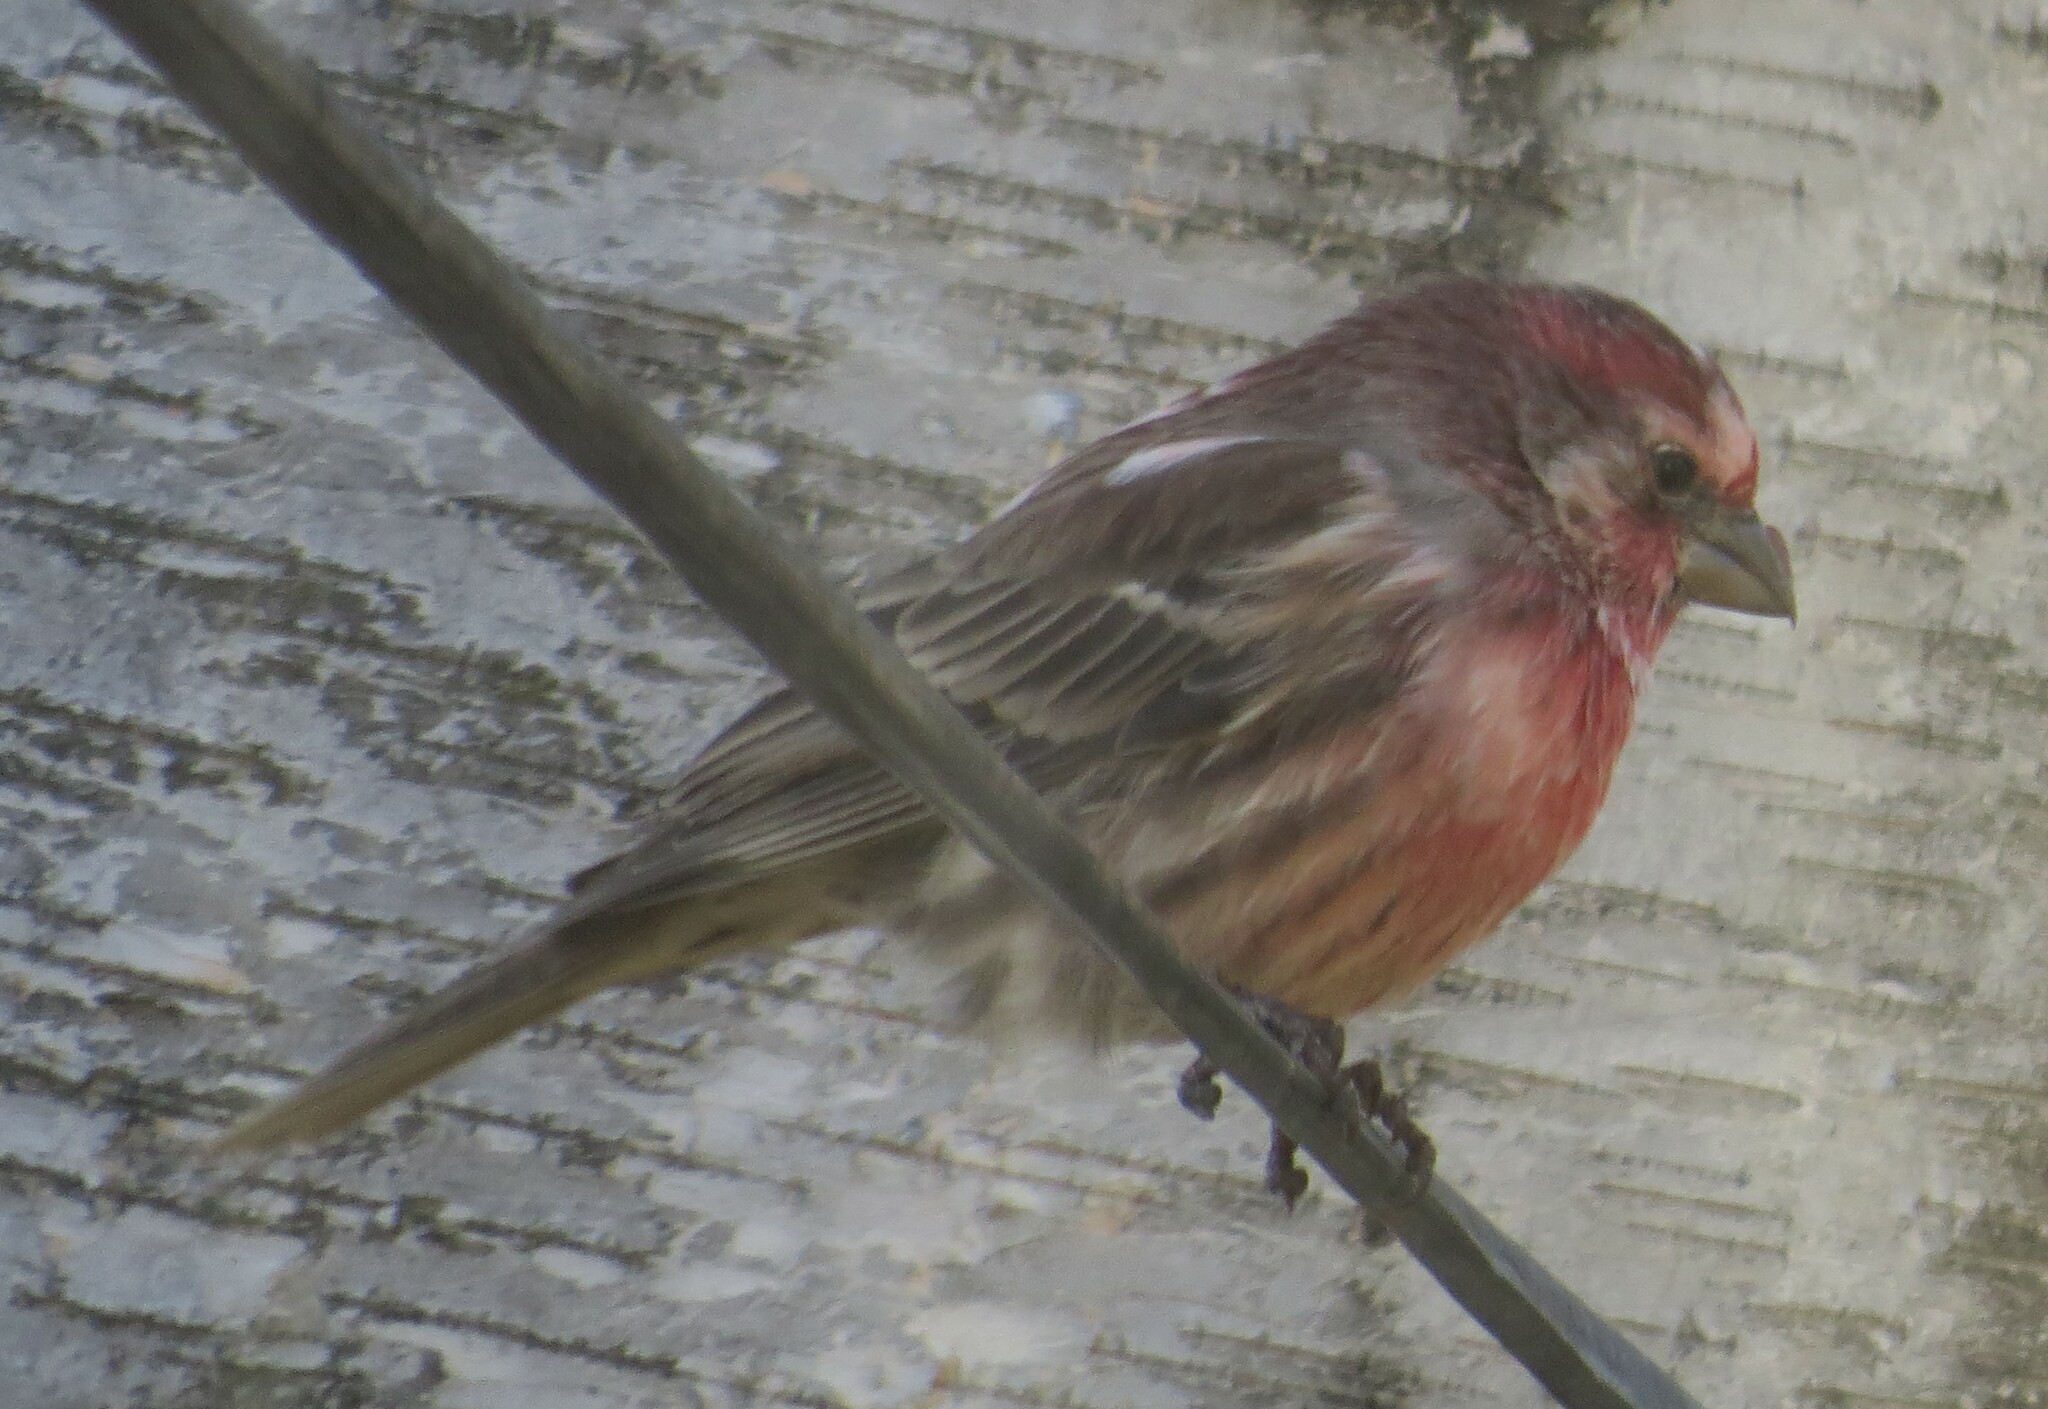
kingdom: Animalia
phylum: Chordata
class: Aves
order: Passeriformes
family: Fringillidae
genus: Haemorhous
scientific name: Haemorhous mexicanus
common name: House finch
